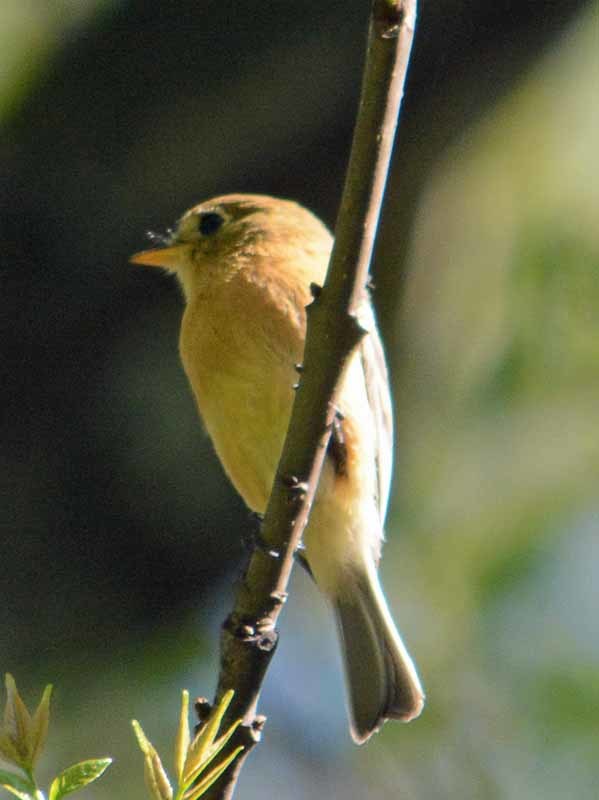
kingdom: Animalia
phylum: Chordata
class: Aves
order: Passeriformes
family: Tyrannidae
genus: Empidonax
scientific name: Empidonax fulvifrons
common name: Buff-breasted flycatcher
